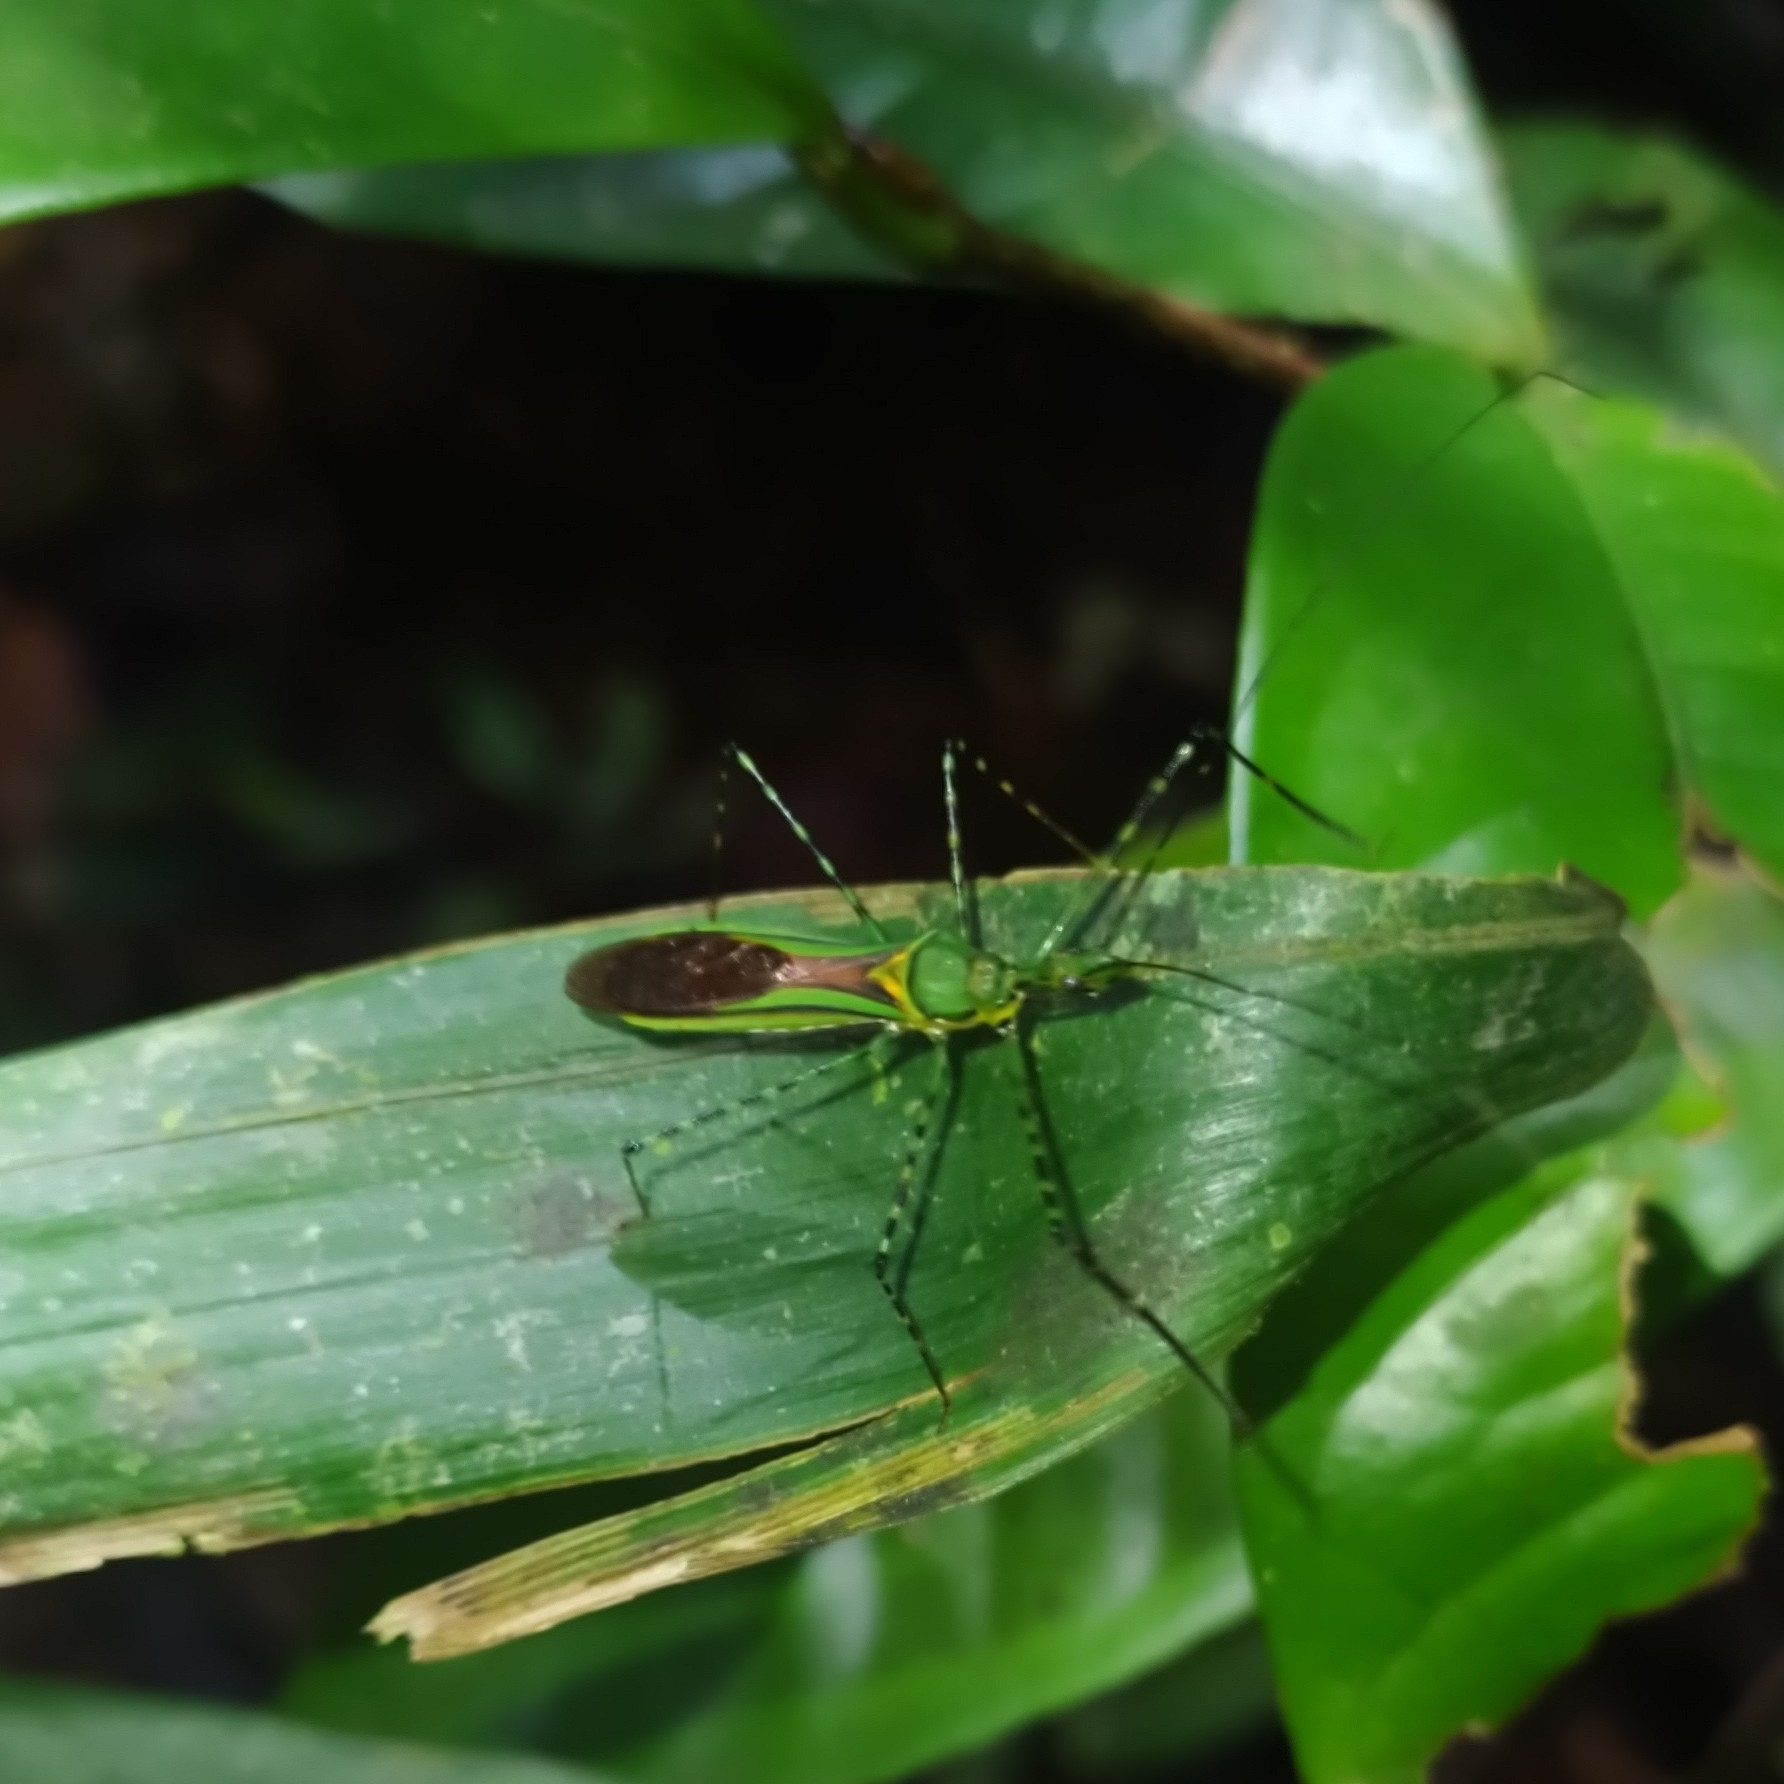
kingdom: Animalia
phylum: Arthropoda
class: Insecta
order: Hemiptera
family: Reduviidae
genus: Zelus
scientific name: Zelus annulosus
